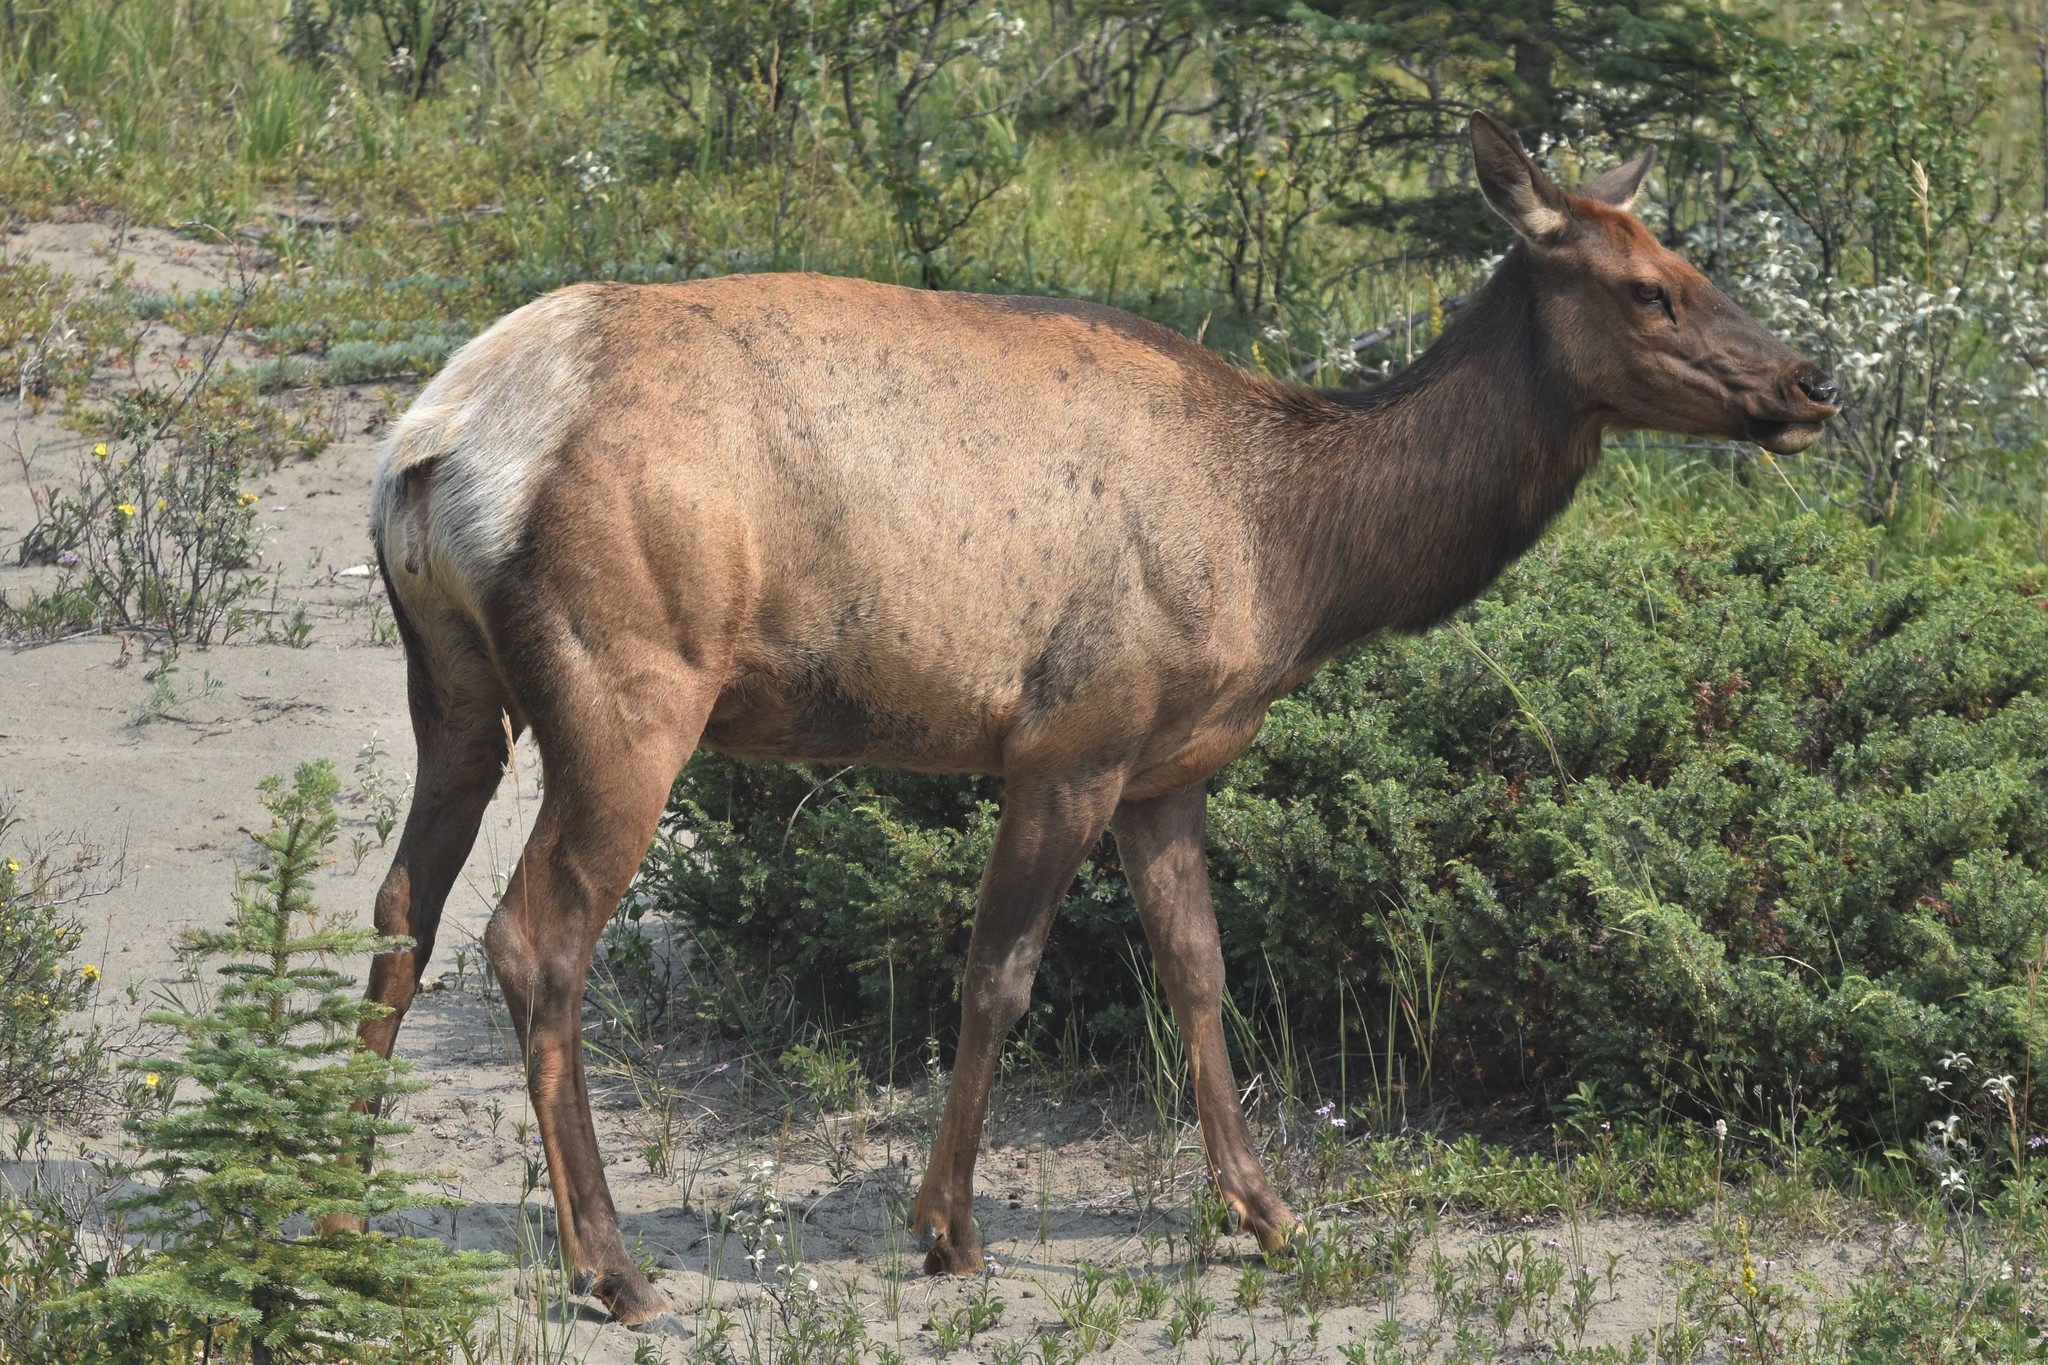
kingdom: Animalia
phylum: Chordata
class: Mammalia
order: Artiodactyla
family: Cervidae
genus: Cervus
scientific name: Cervus elaphus
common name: Red deer
